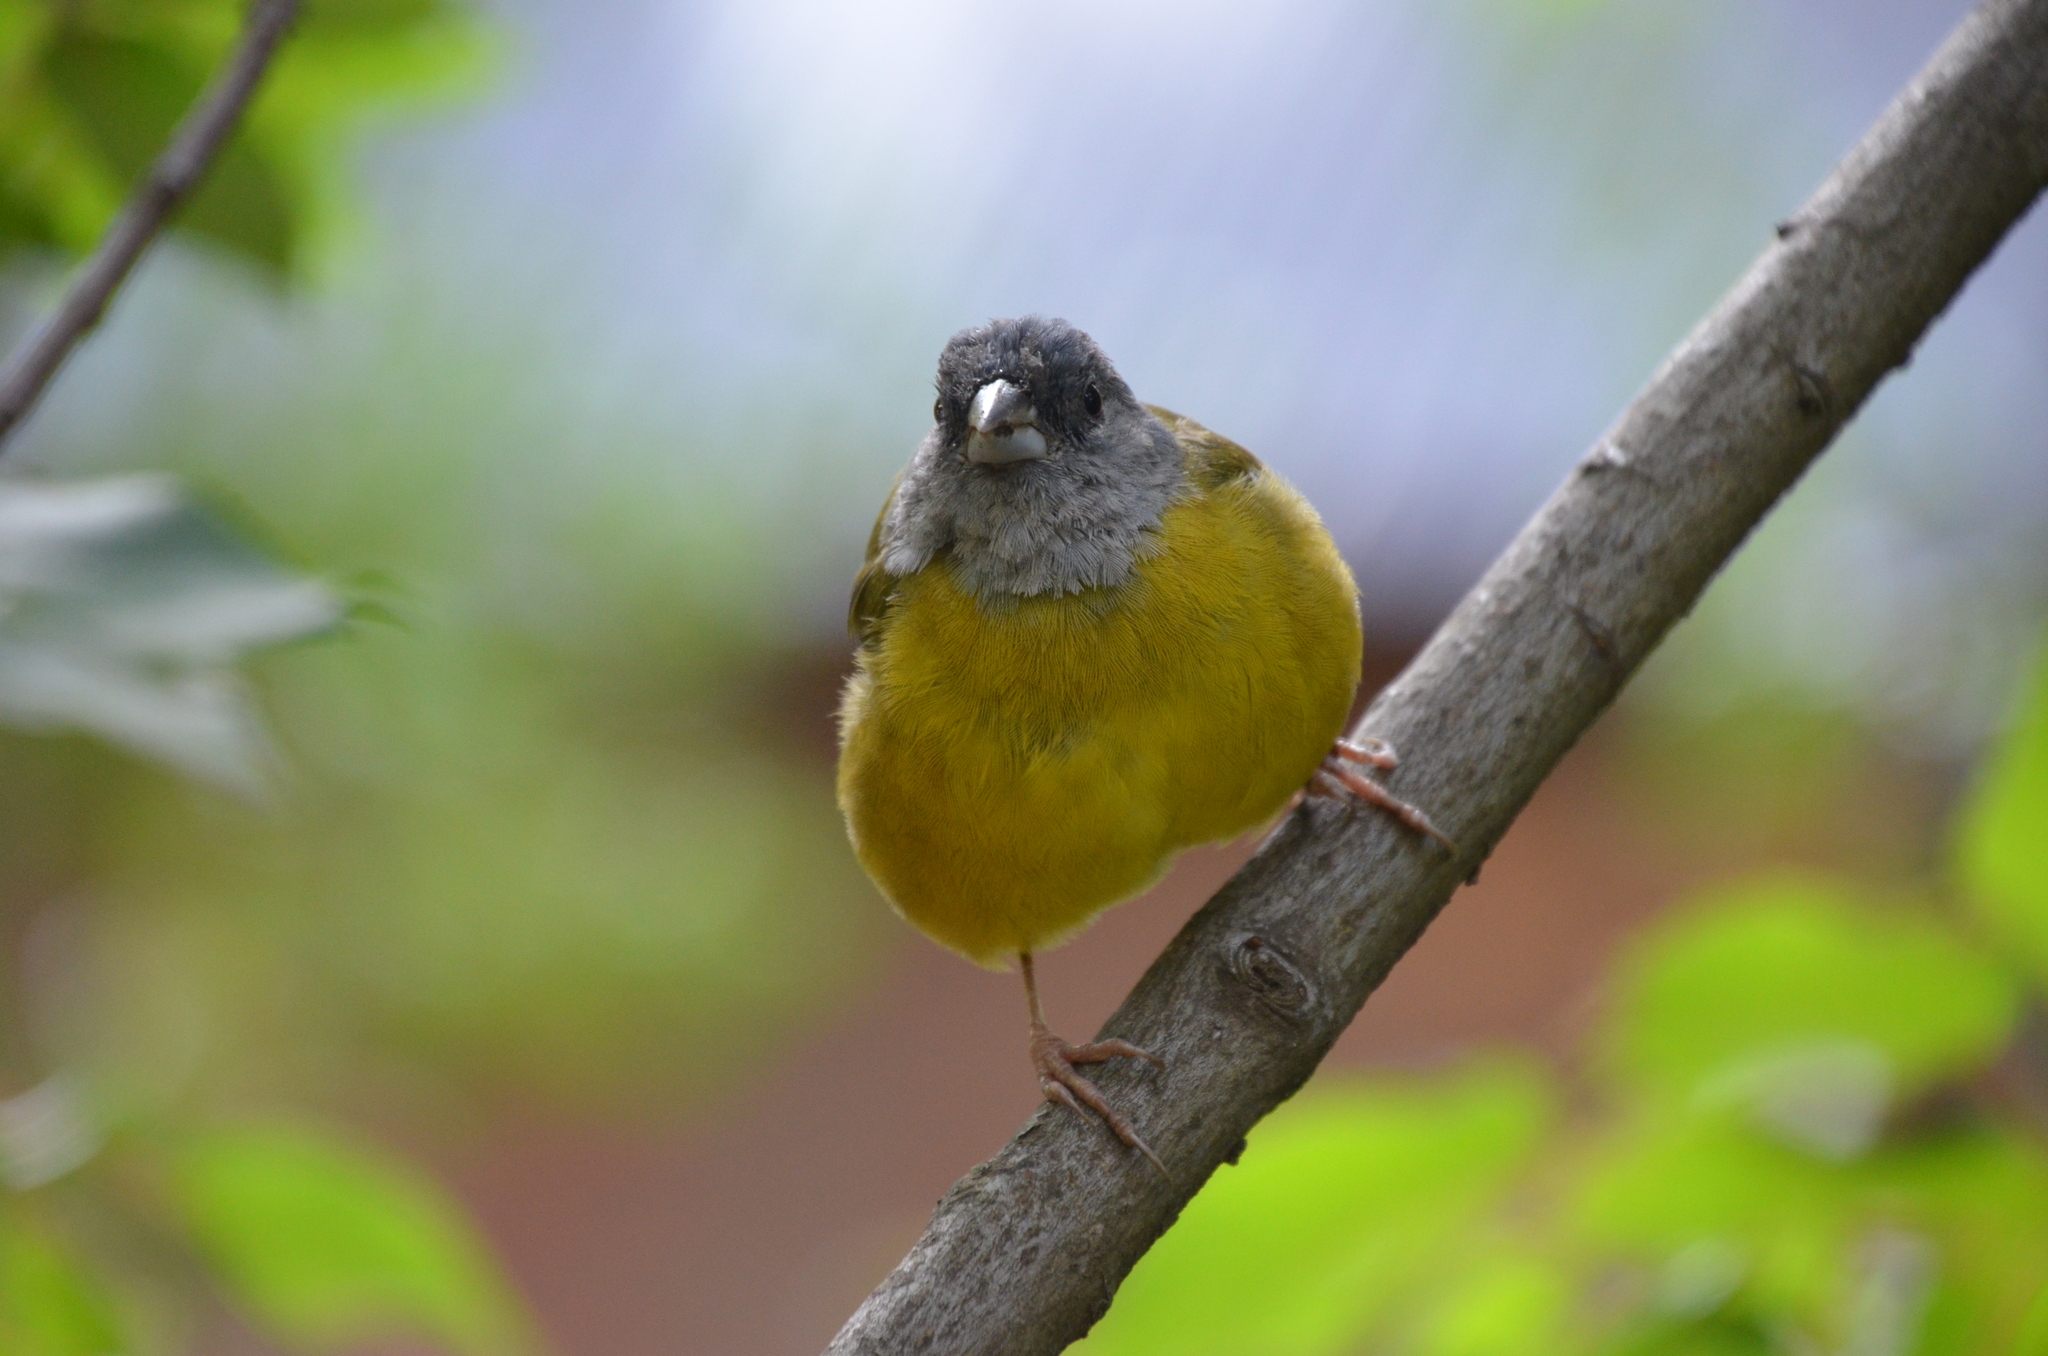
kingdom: Animalia
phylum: Chordata
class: Aves
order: Passeriformes
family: Thraupidae
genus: Phrygilus
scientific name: Phrygilus patagonicus
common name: Patagonian sierra finch
